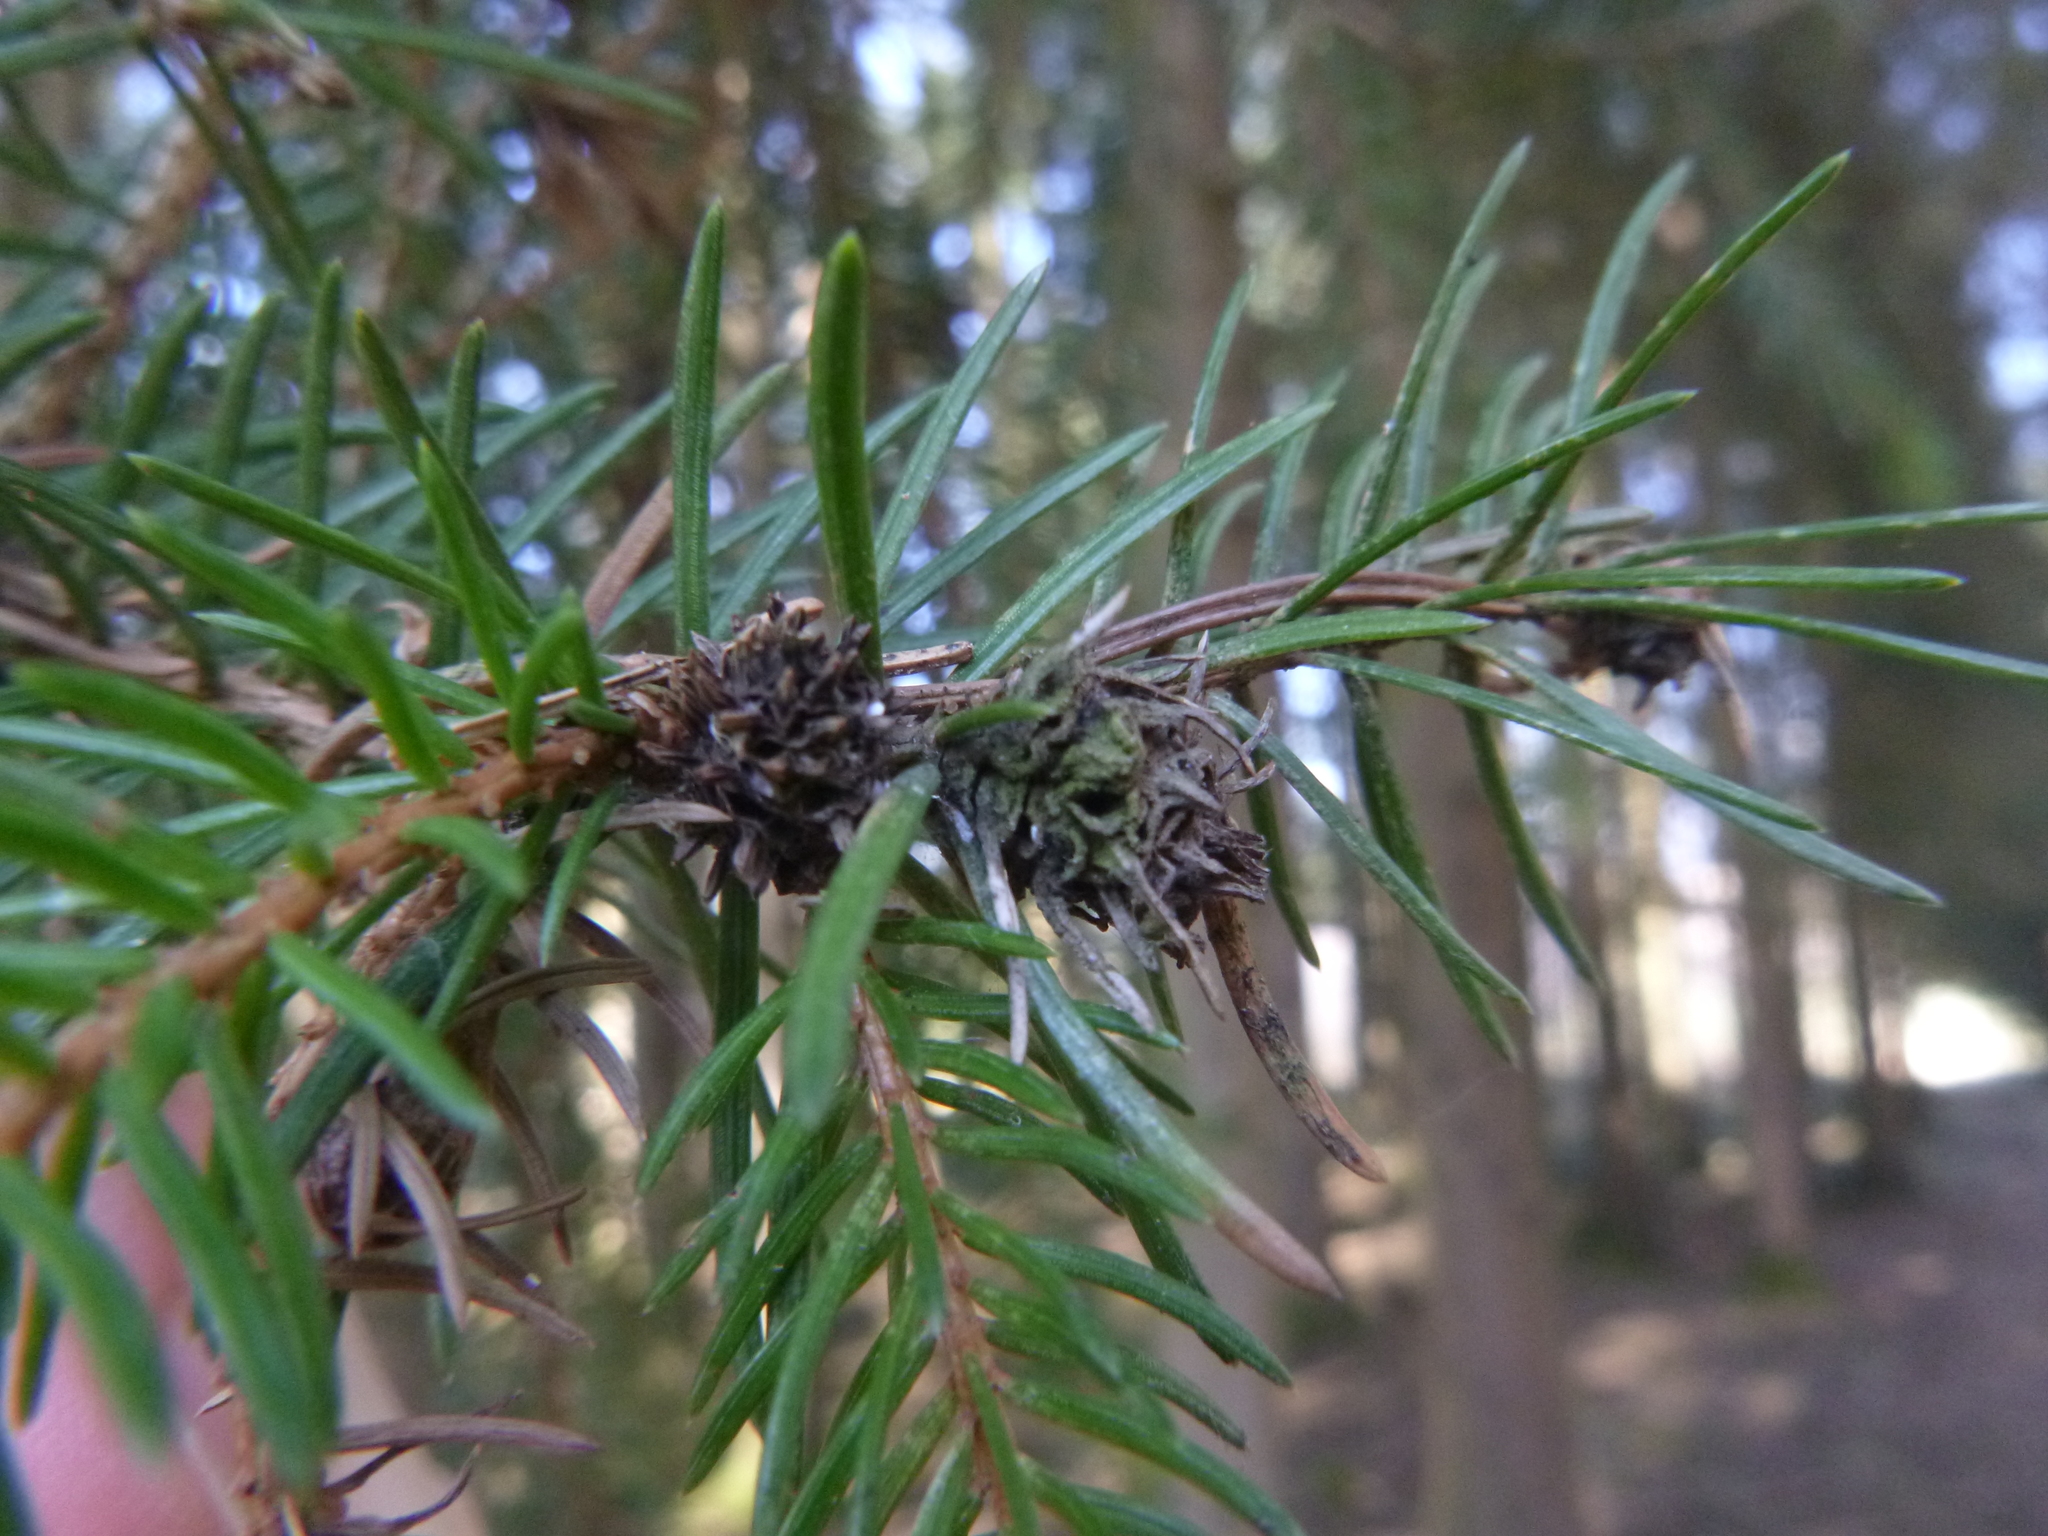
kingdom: Plantae
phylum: Tracheophyta
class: Pinopsida
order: Pinales
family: Pinaceae
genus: Picea
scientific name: Picea abies
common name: Norway spruce
